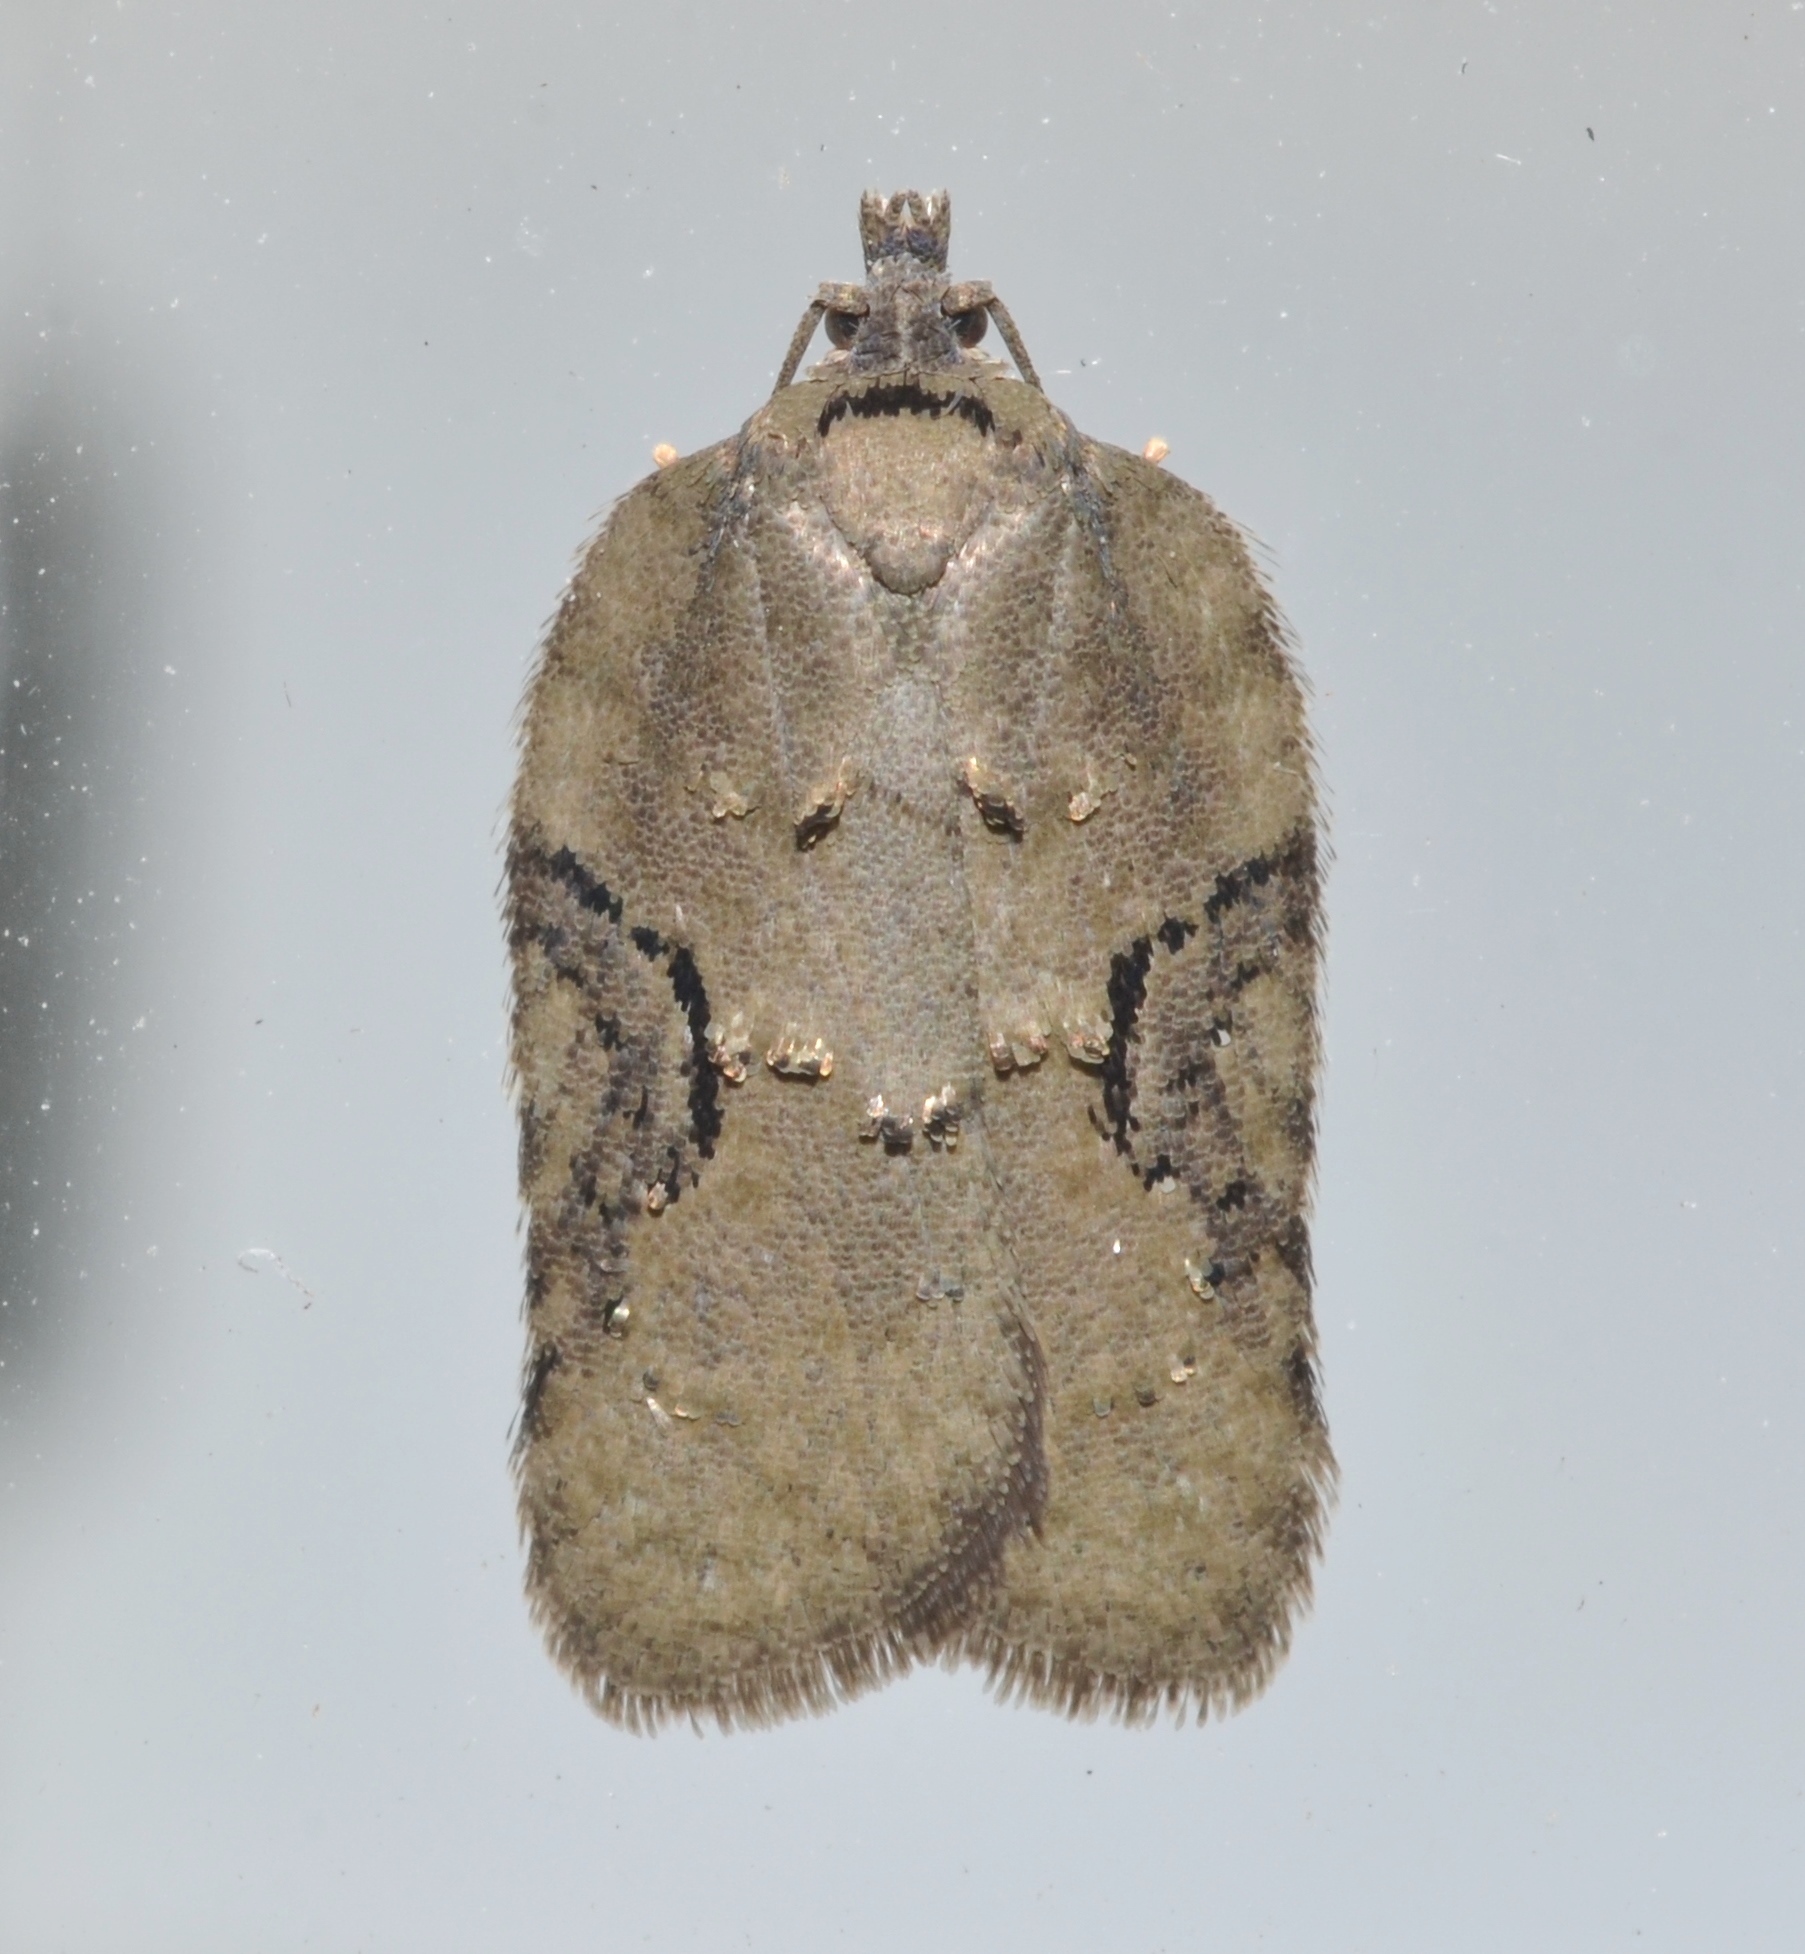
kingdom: Animalia
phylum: Arthropoda
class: Insecta
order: Lepidoptera
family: Tortricidae
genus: Acleris
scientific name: Acleris chalybeana
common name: Lesser maple leafroller
